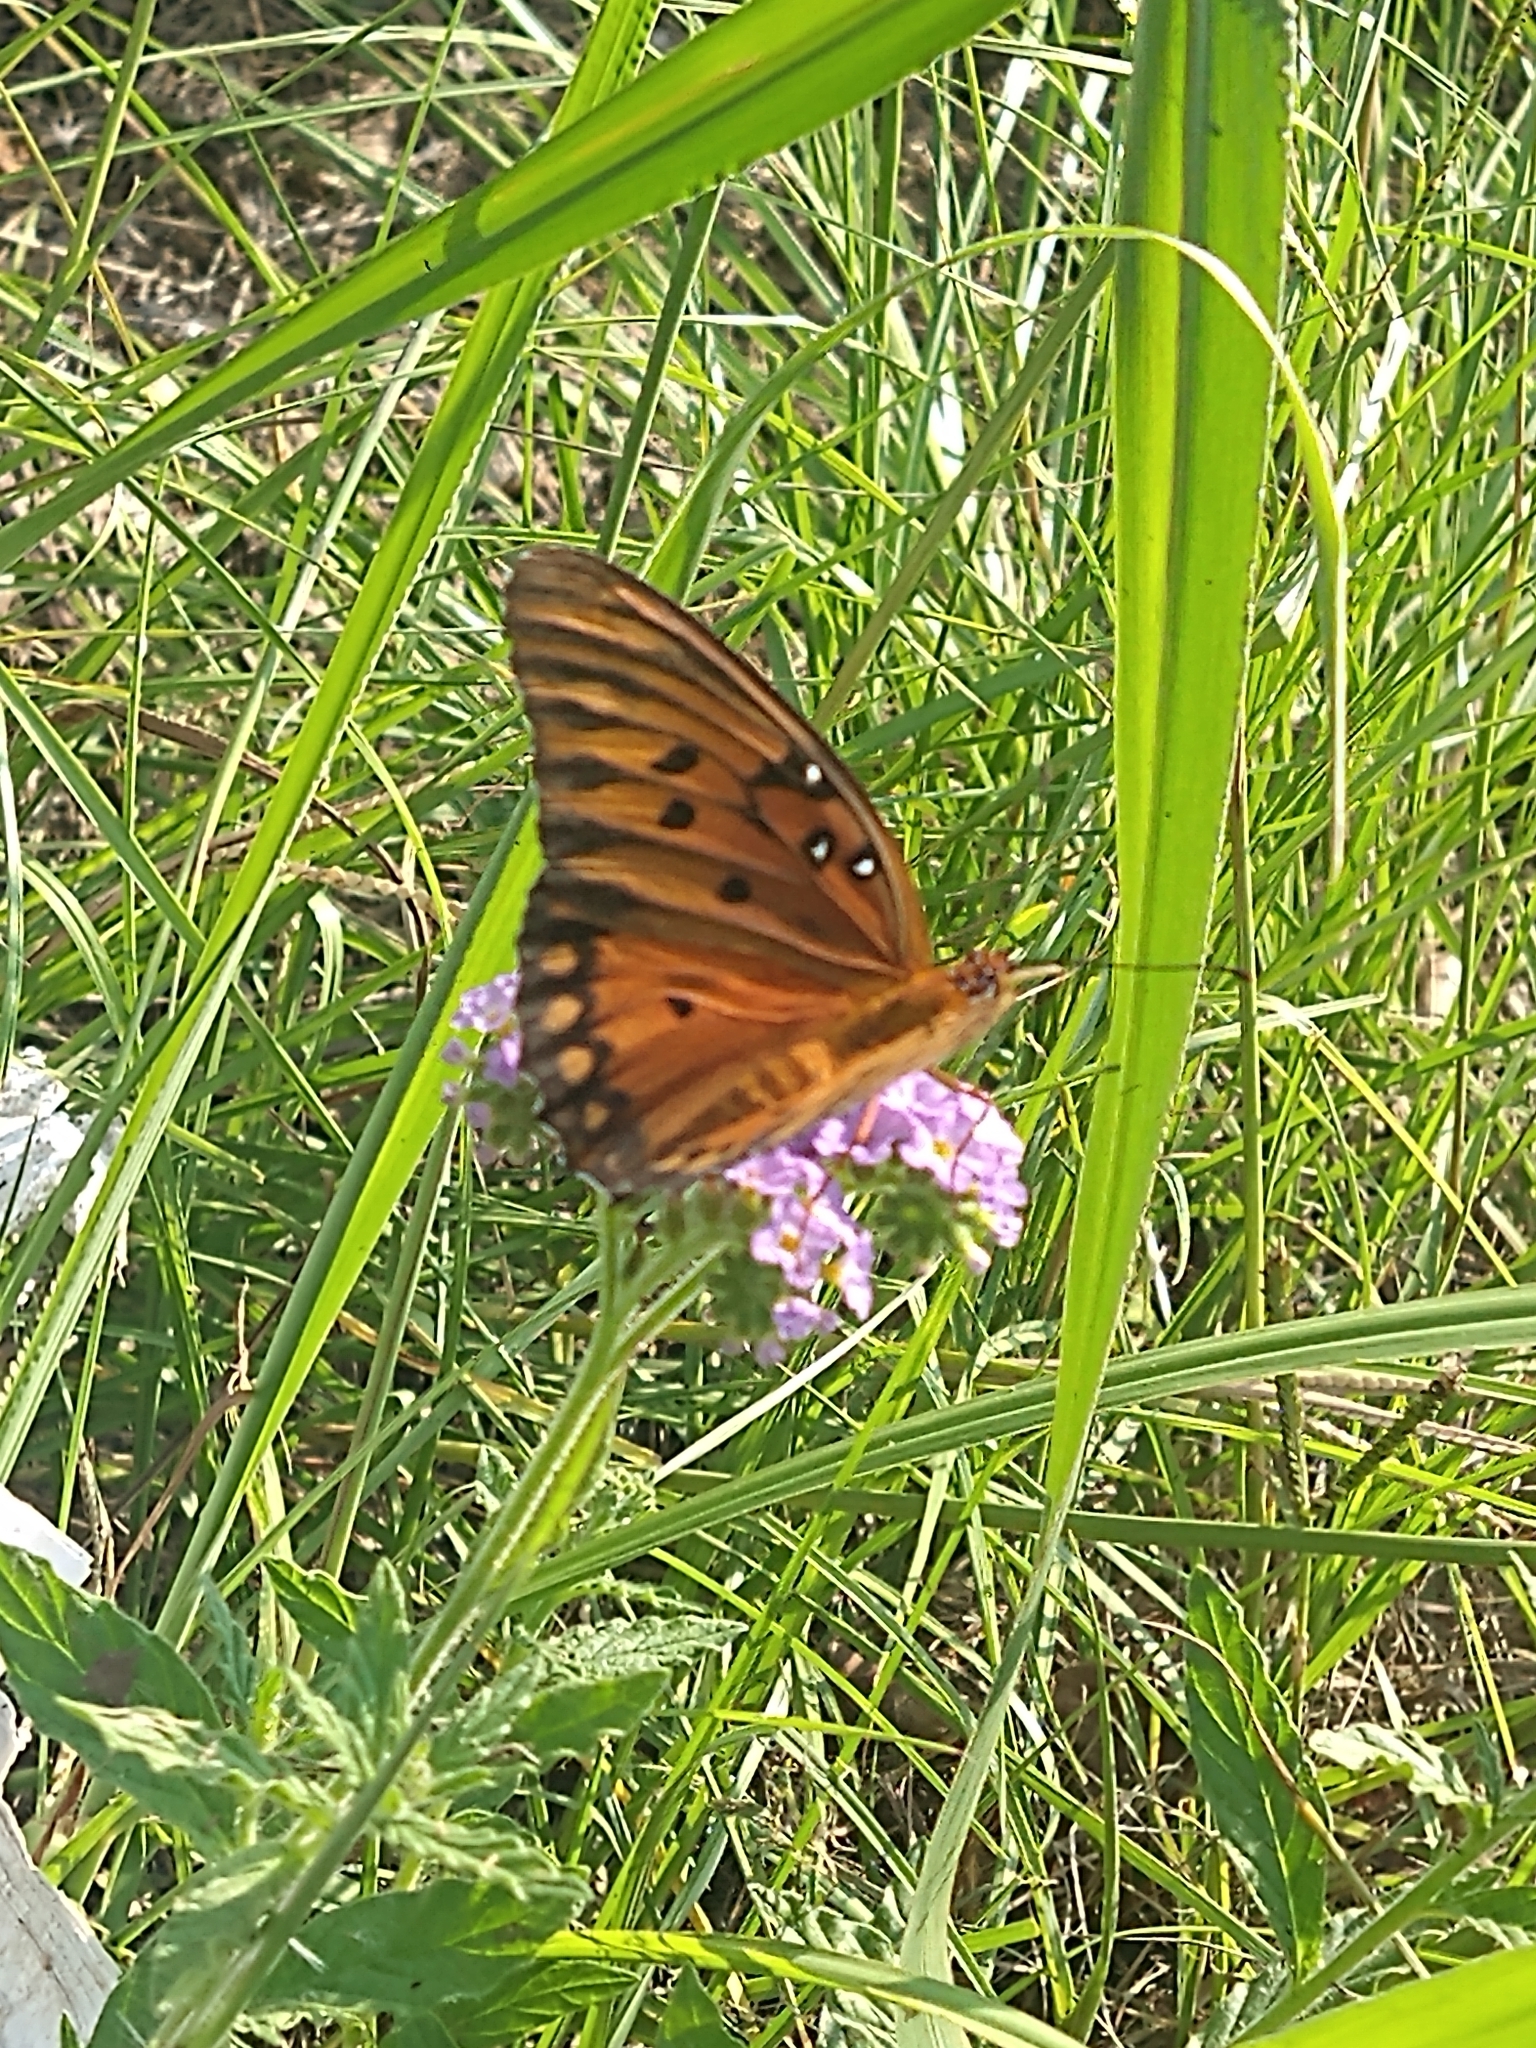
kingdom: Animalia
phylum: Arthropoda
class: Insecta
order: Lepidoptera
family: Nymphalidae
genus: Dione
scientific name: Dione vanillae
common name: Gulf fritillary
